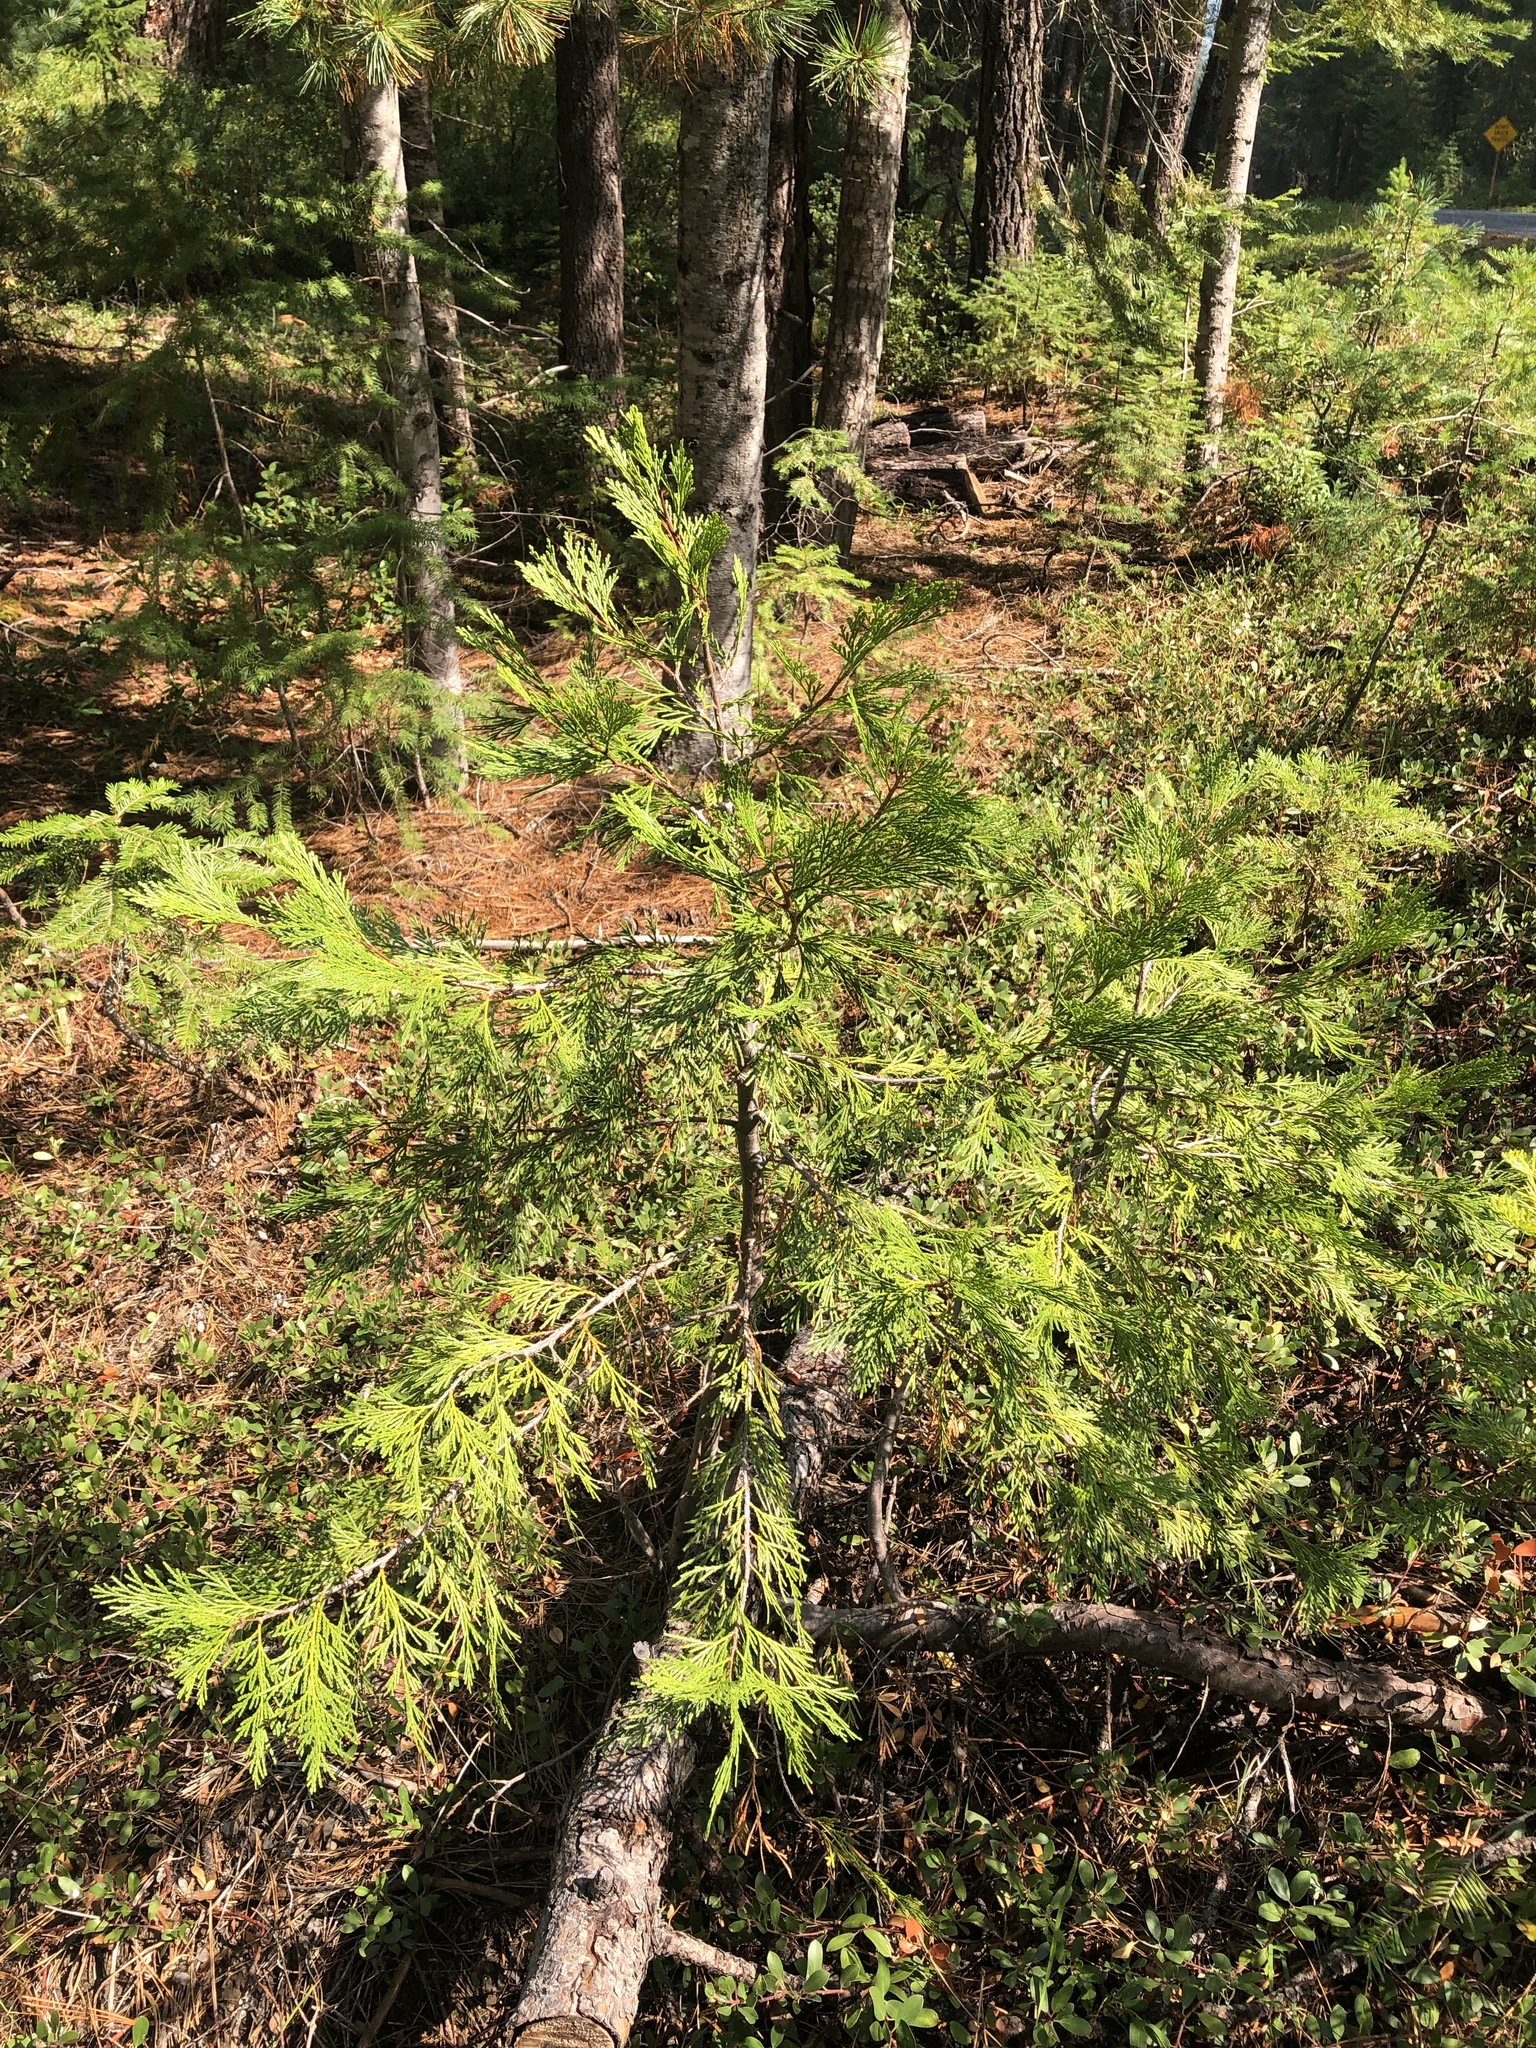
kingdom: Plantae
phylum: Tracheophyta
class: Pinopsida
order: Pinales
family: Cupressaceae
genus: Calocedrus
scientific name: Calocedrus decurrens
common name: Californian incense-cedar
